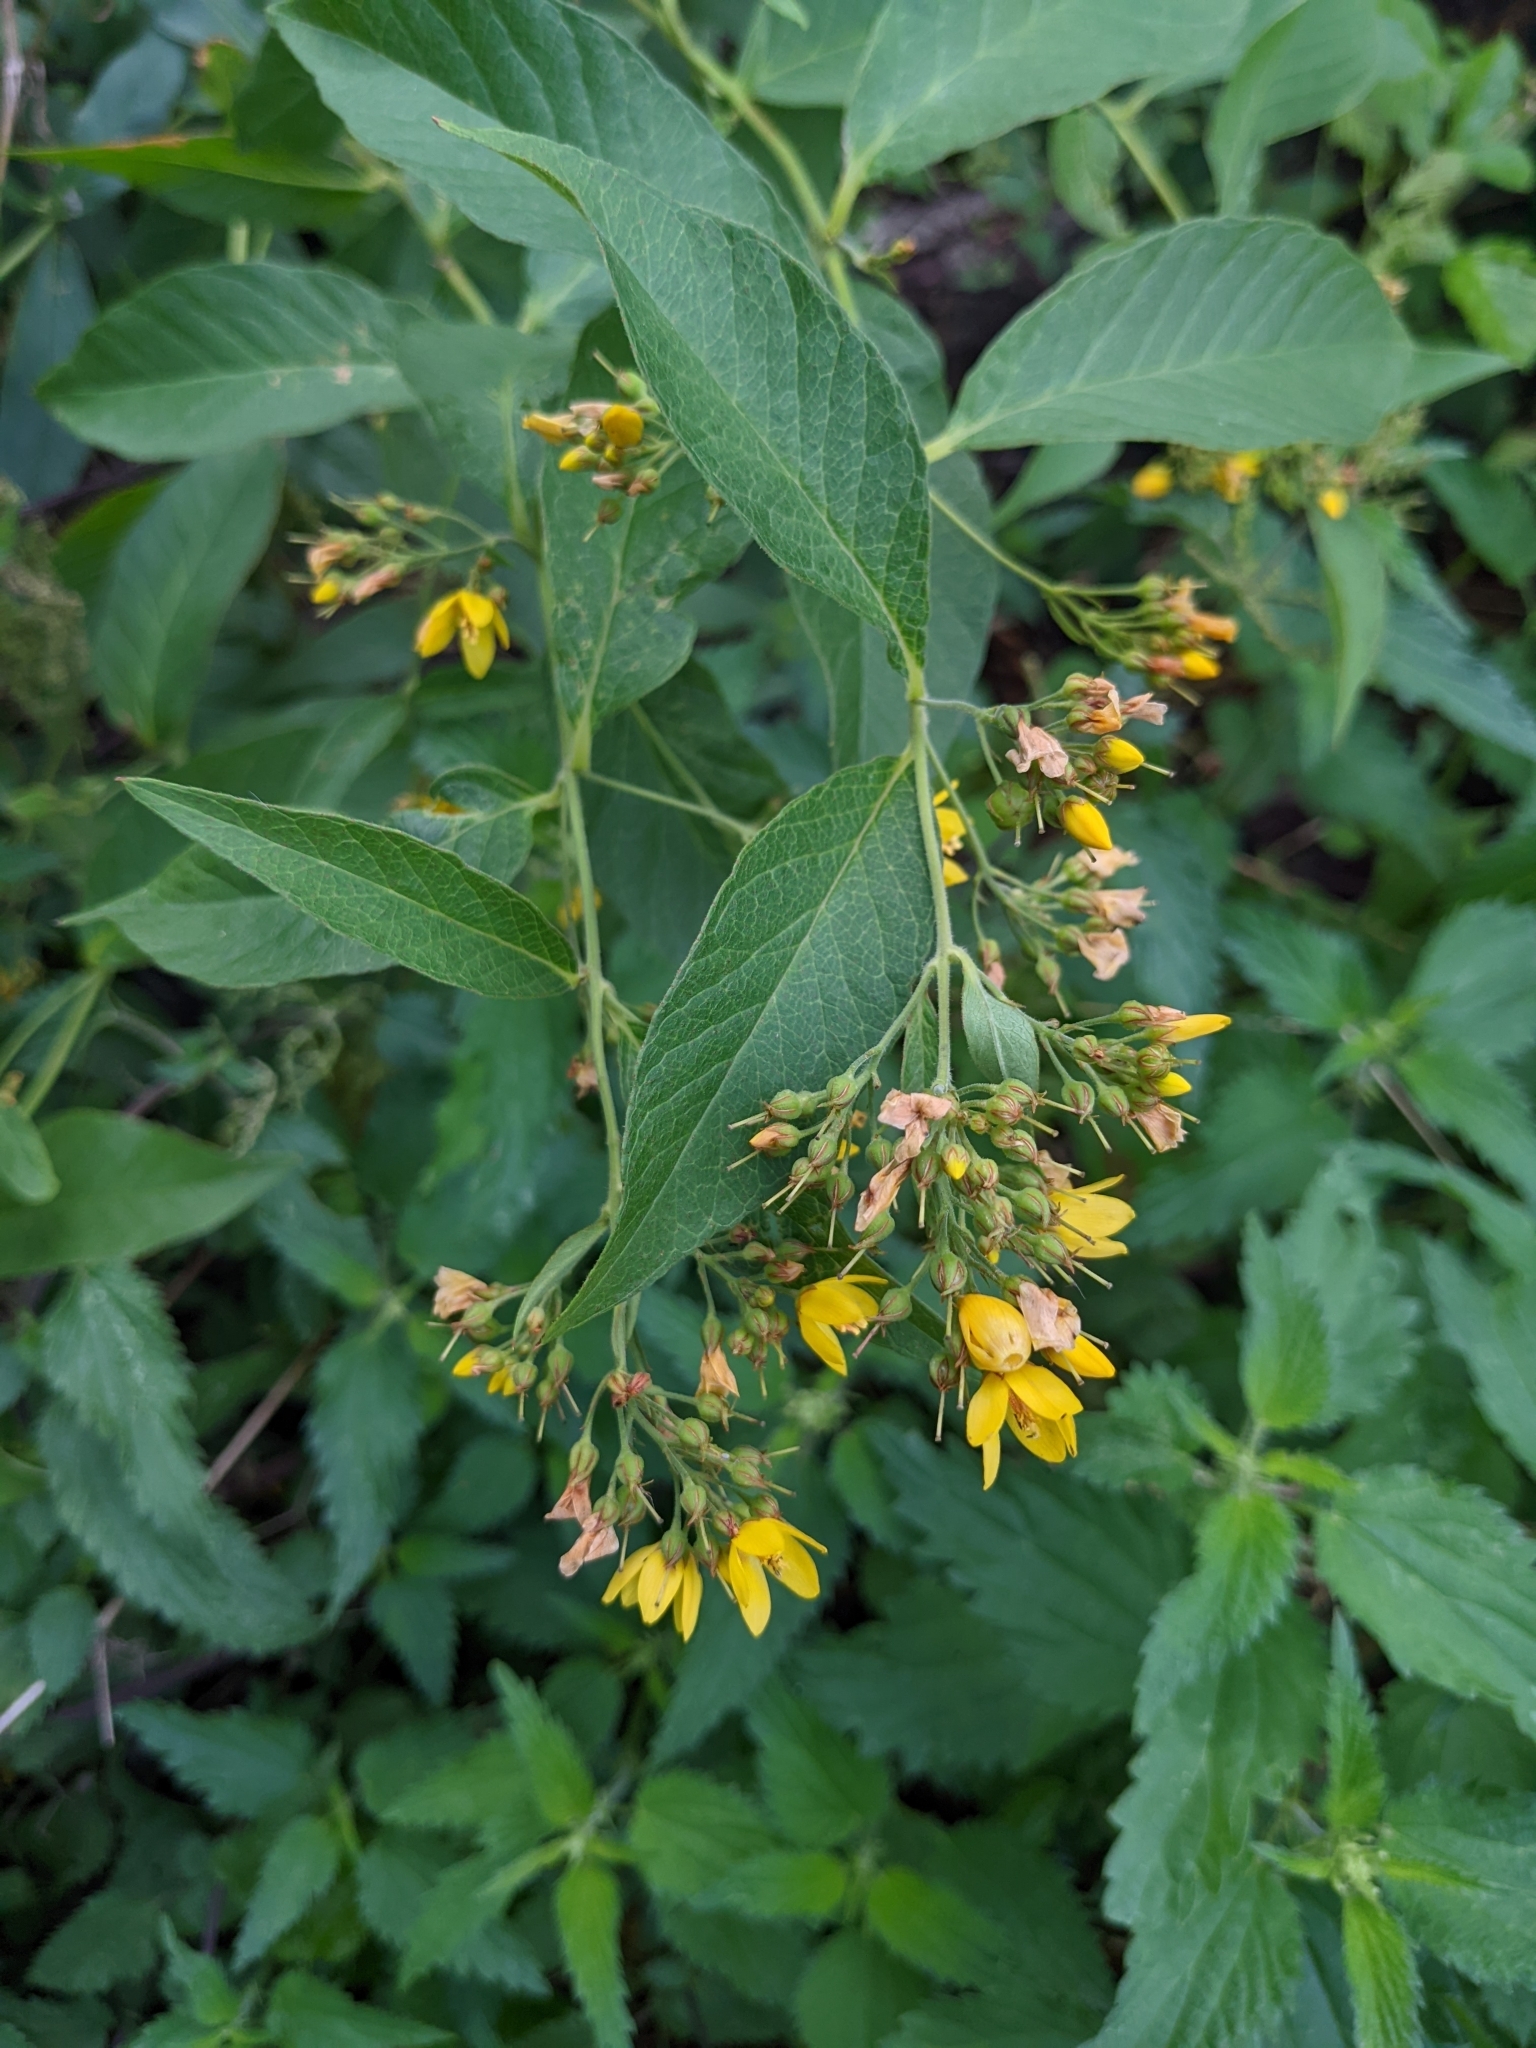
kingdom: Plantae
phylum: Tracheophyta
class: Magnoliopsida
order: Ericales
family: Primulaceae
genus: Lysimachia
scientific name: Lysimachia vulgaris
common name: Yellow loosestrife
